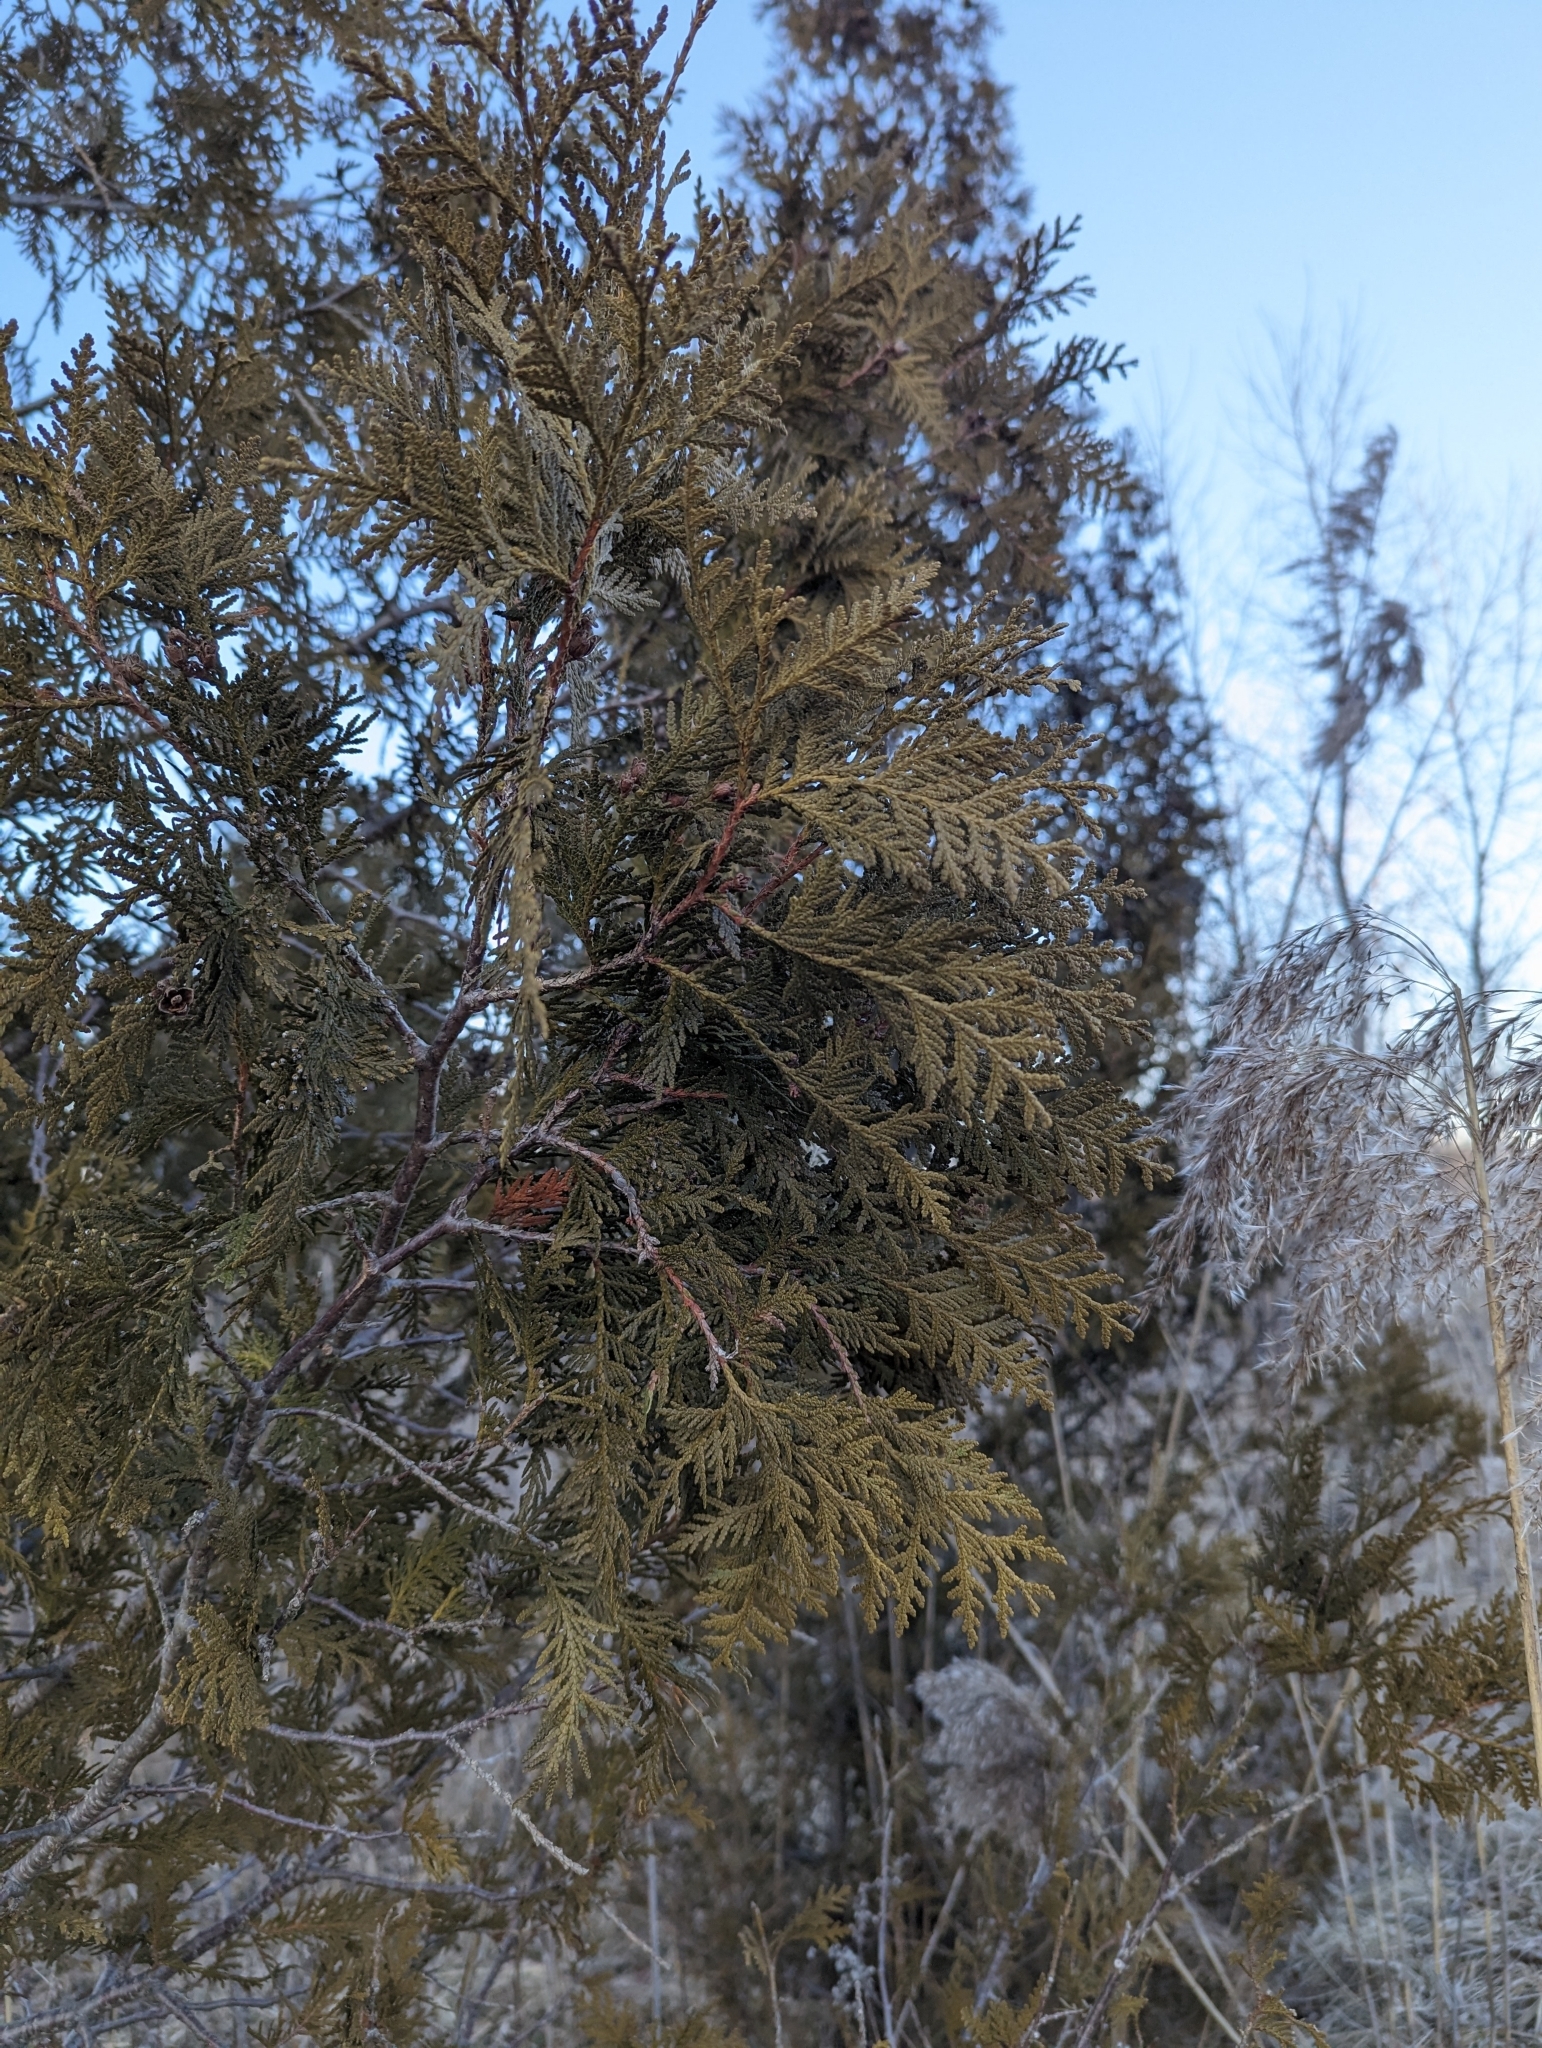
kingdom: Plantae
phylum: Tracheophyta
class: Pinopsida
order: Pinales
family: Cupressaceae
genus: Thuja
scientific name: Thuja occidentalis
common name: Northern white-cedar
